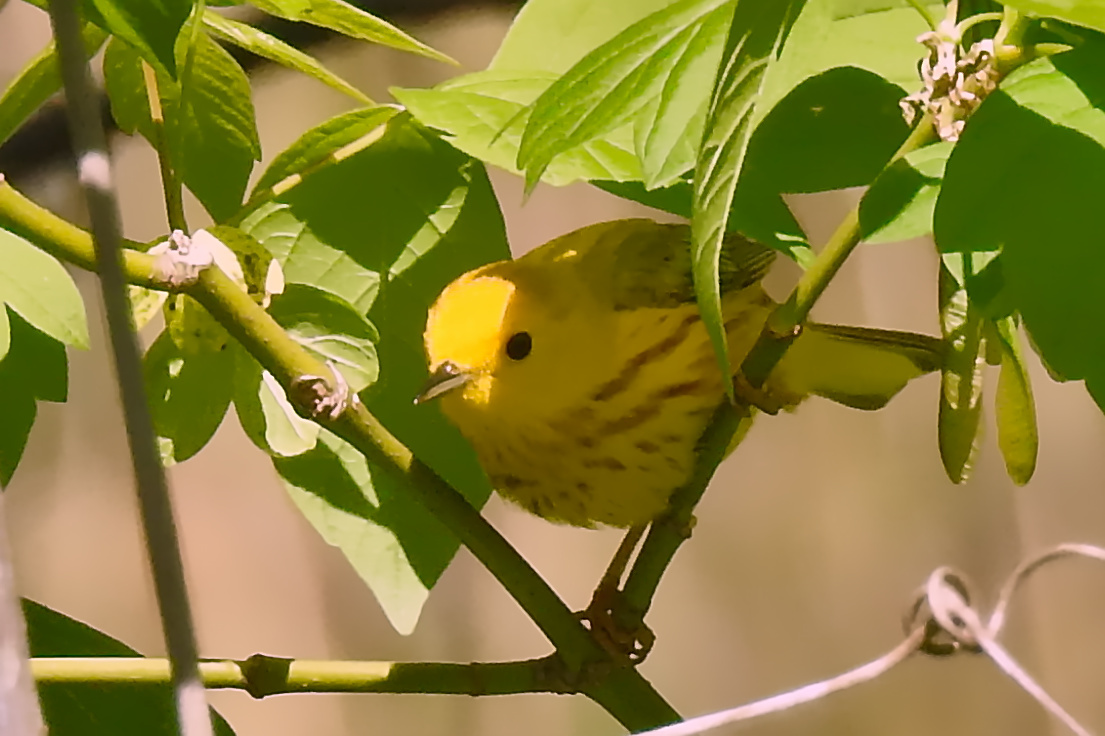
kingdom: Animalia
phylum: Chordata
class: Aves
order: Passeriformes
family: Parulidae
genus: Setophaga
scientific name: Setophaga petechia
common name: Yellow warbler
